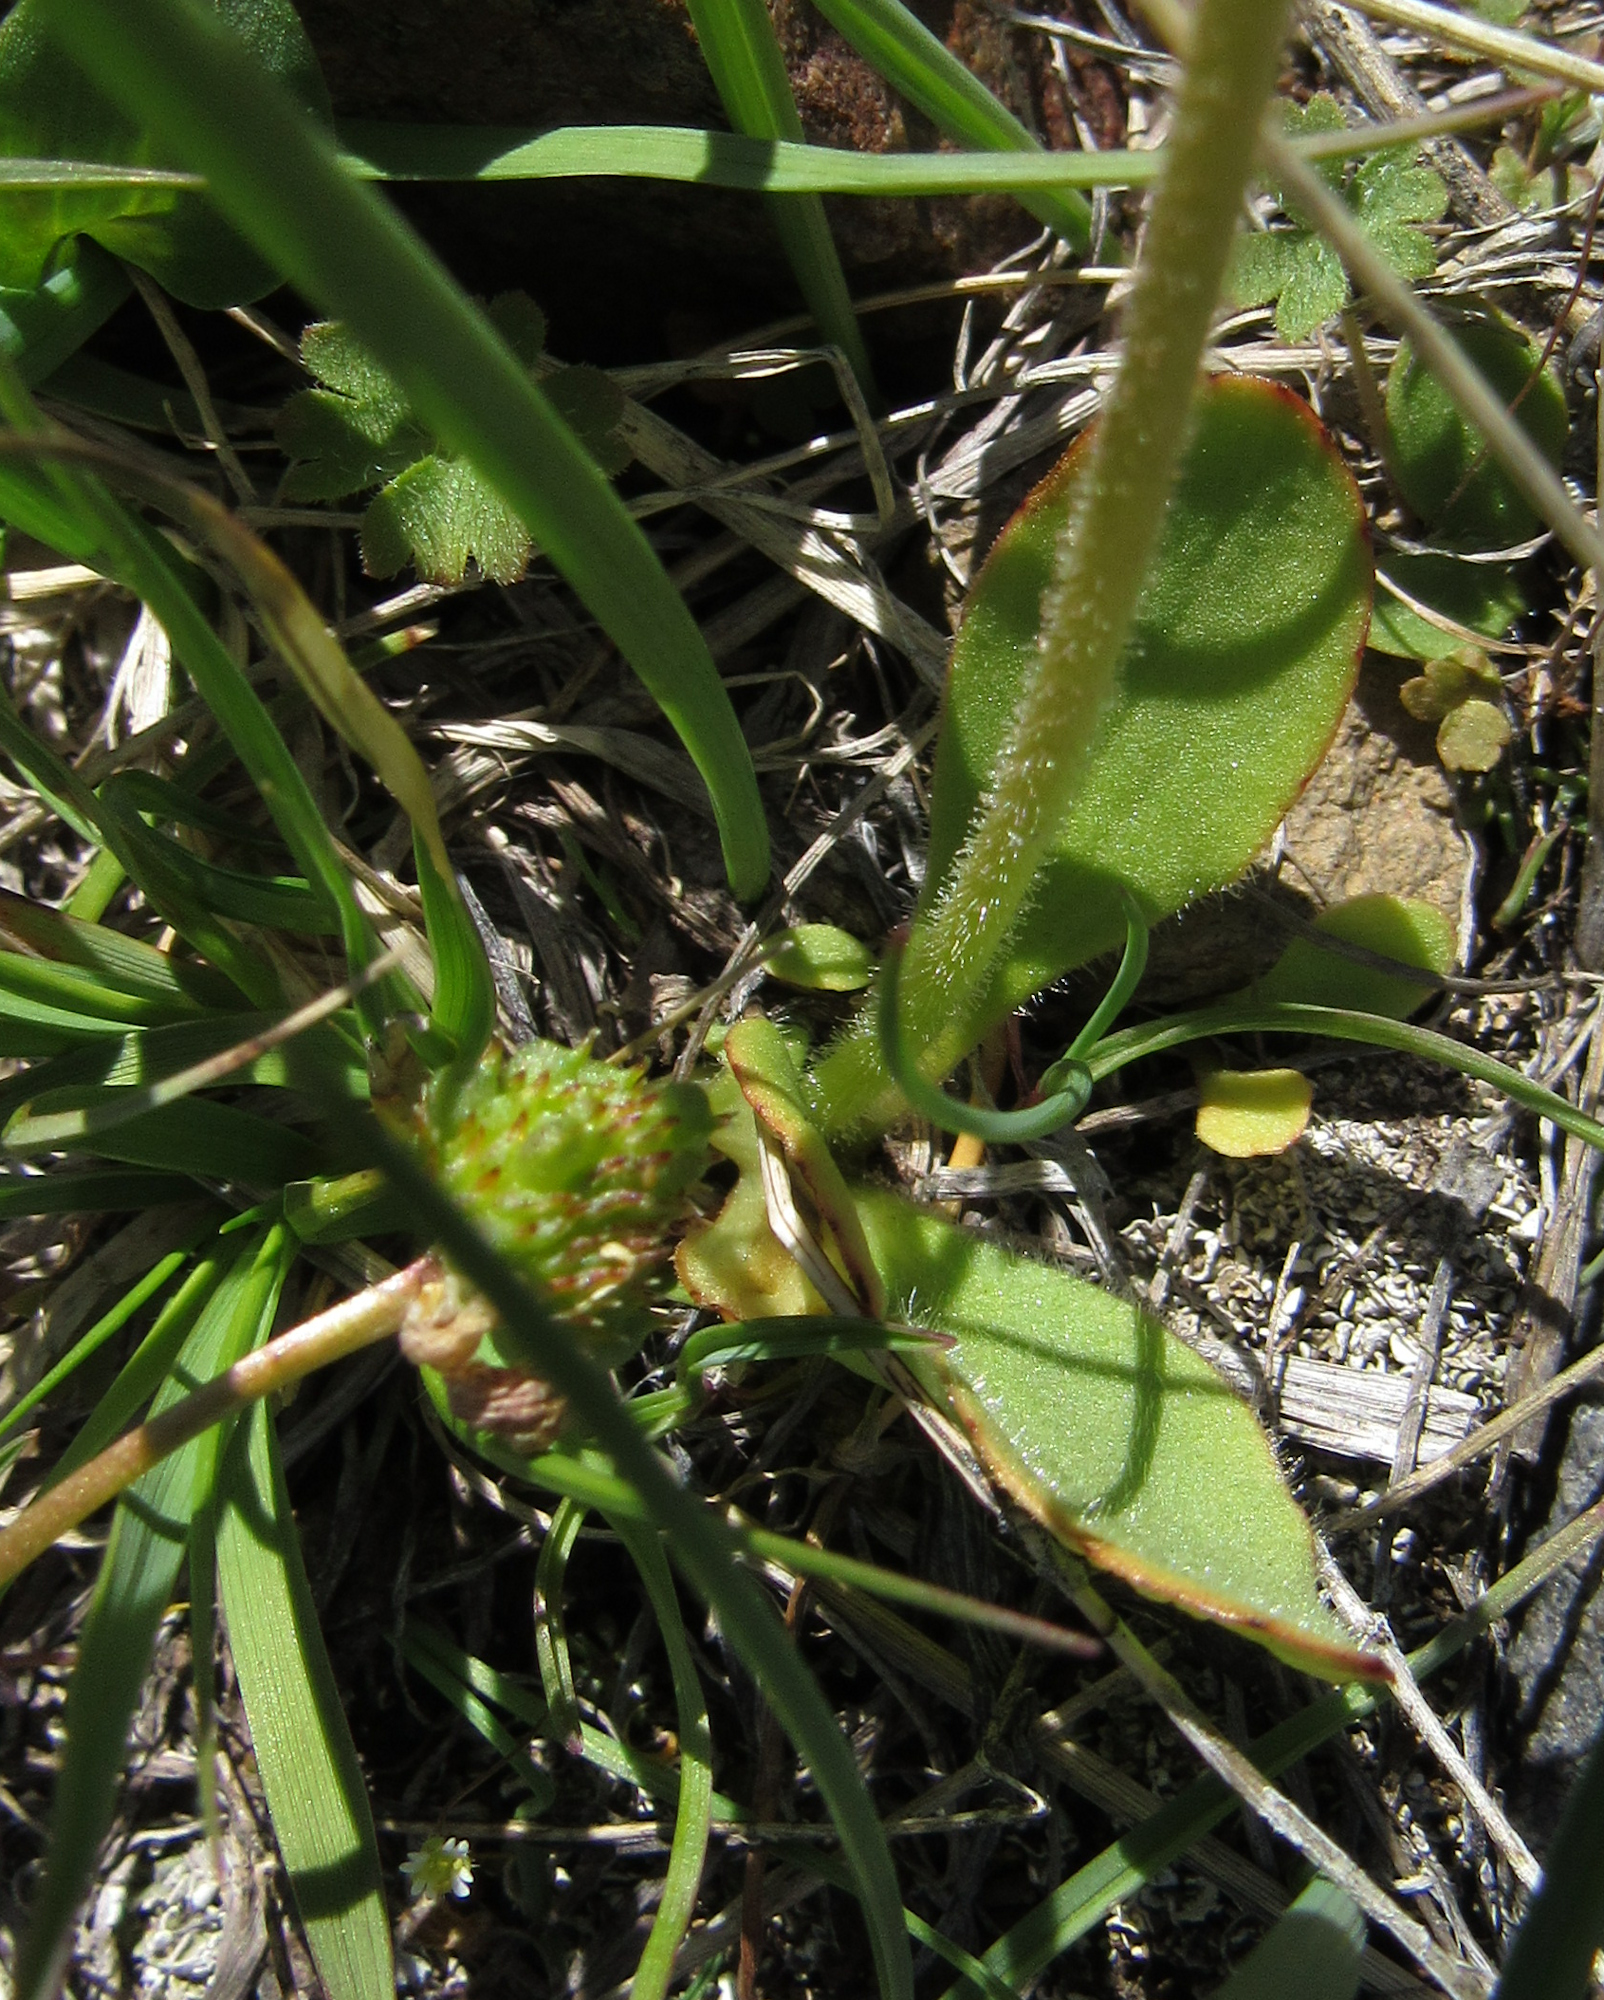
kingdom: Plantae
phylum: Tracheophyta
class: Magnoliopsida
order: Saxifragales
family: Saxifragaceae
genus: Micranthes
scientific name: Micranthes oregana
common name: Bog saxifrage
